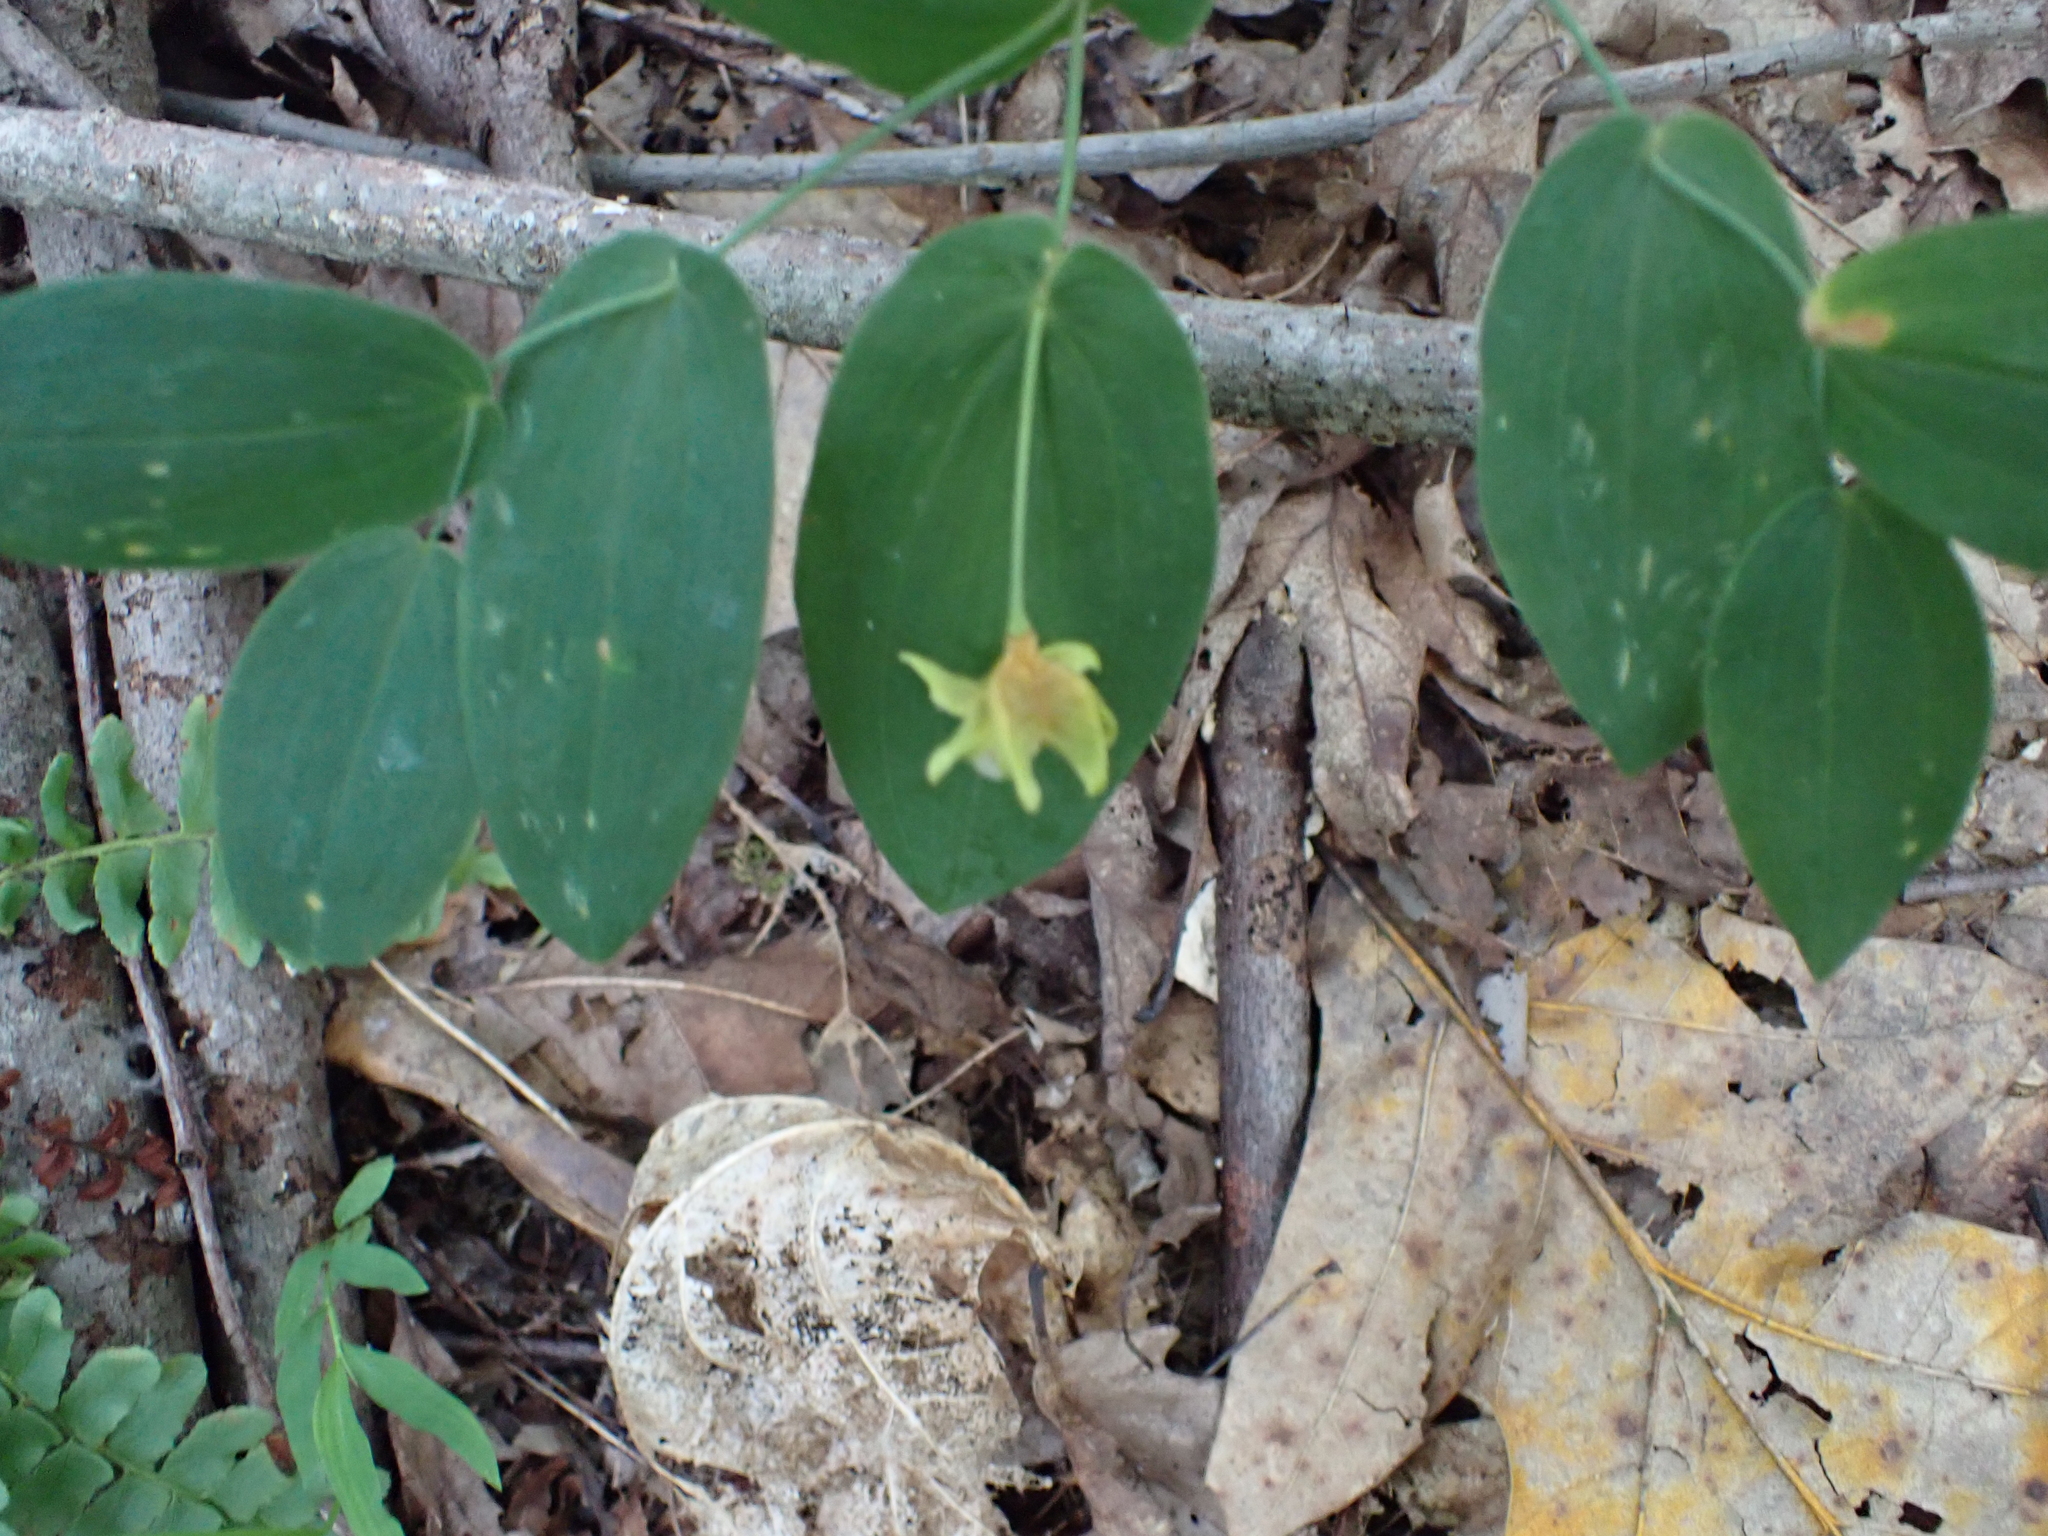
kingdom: Plantae
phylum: Tracheophyta
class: Liliopsida
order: Liliales
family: Colchicaceae
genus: Uvularia
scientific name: Uvularia perfoliata
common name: Perfoliate bellwort
